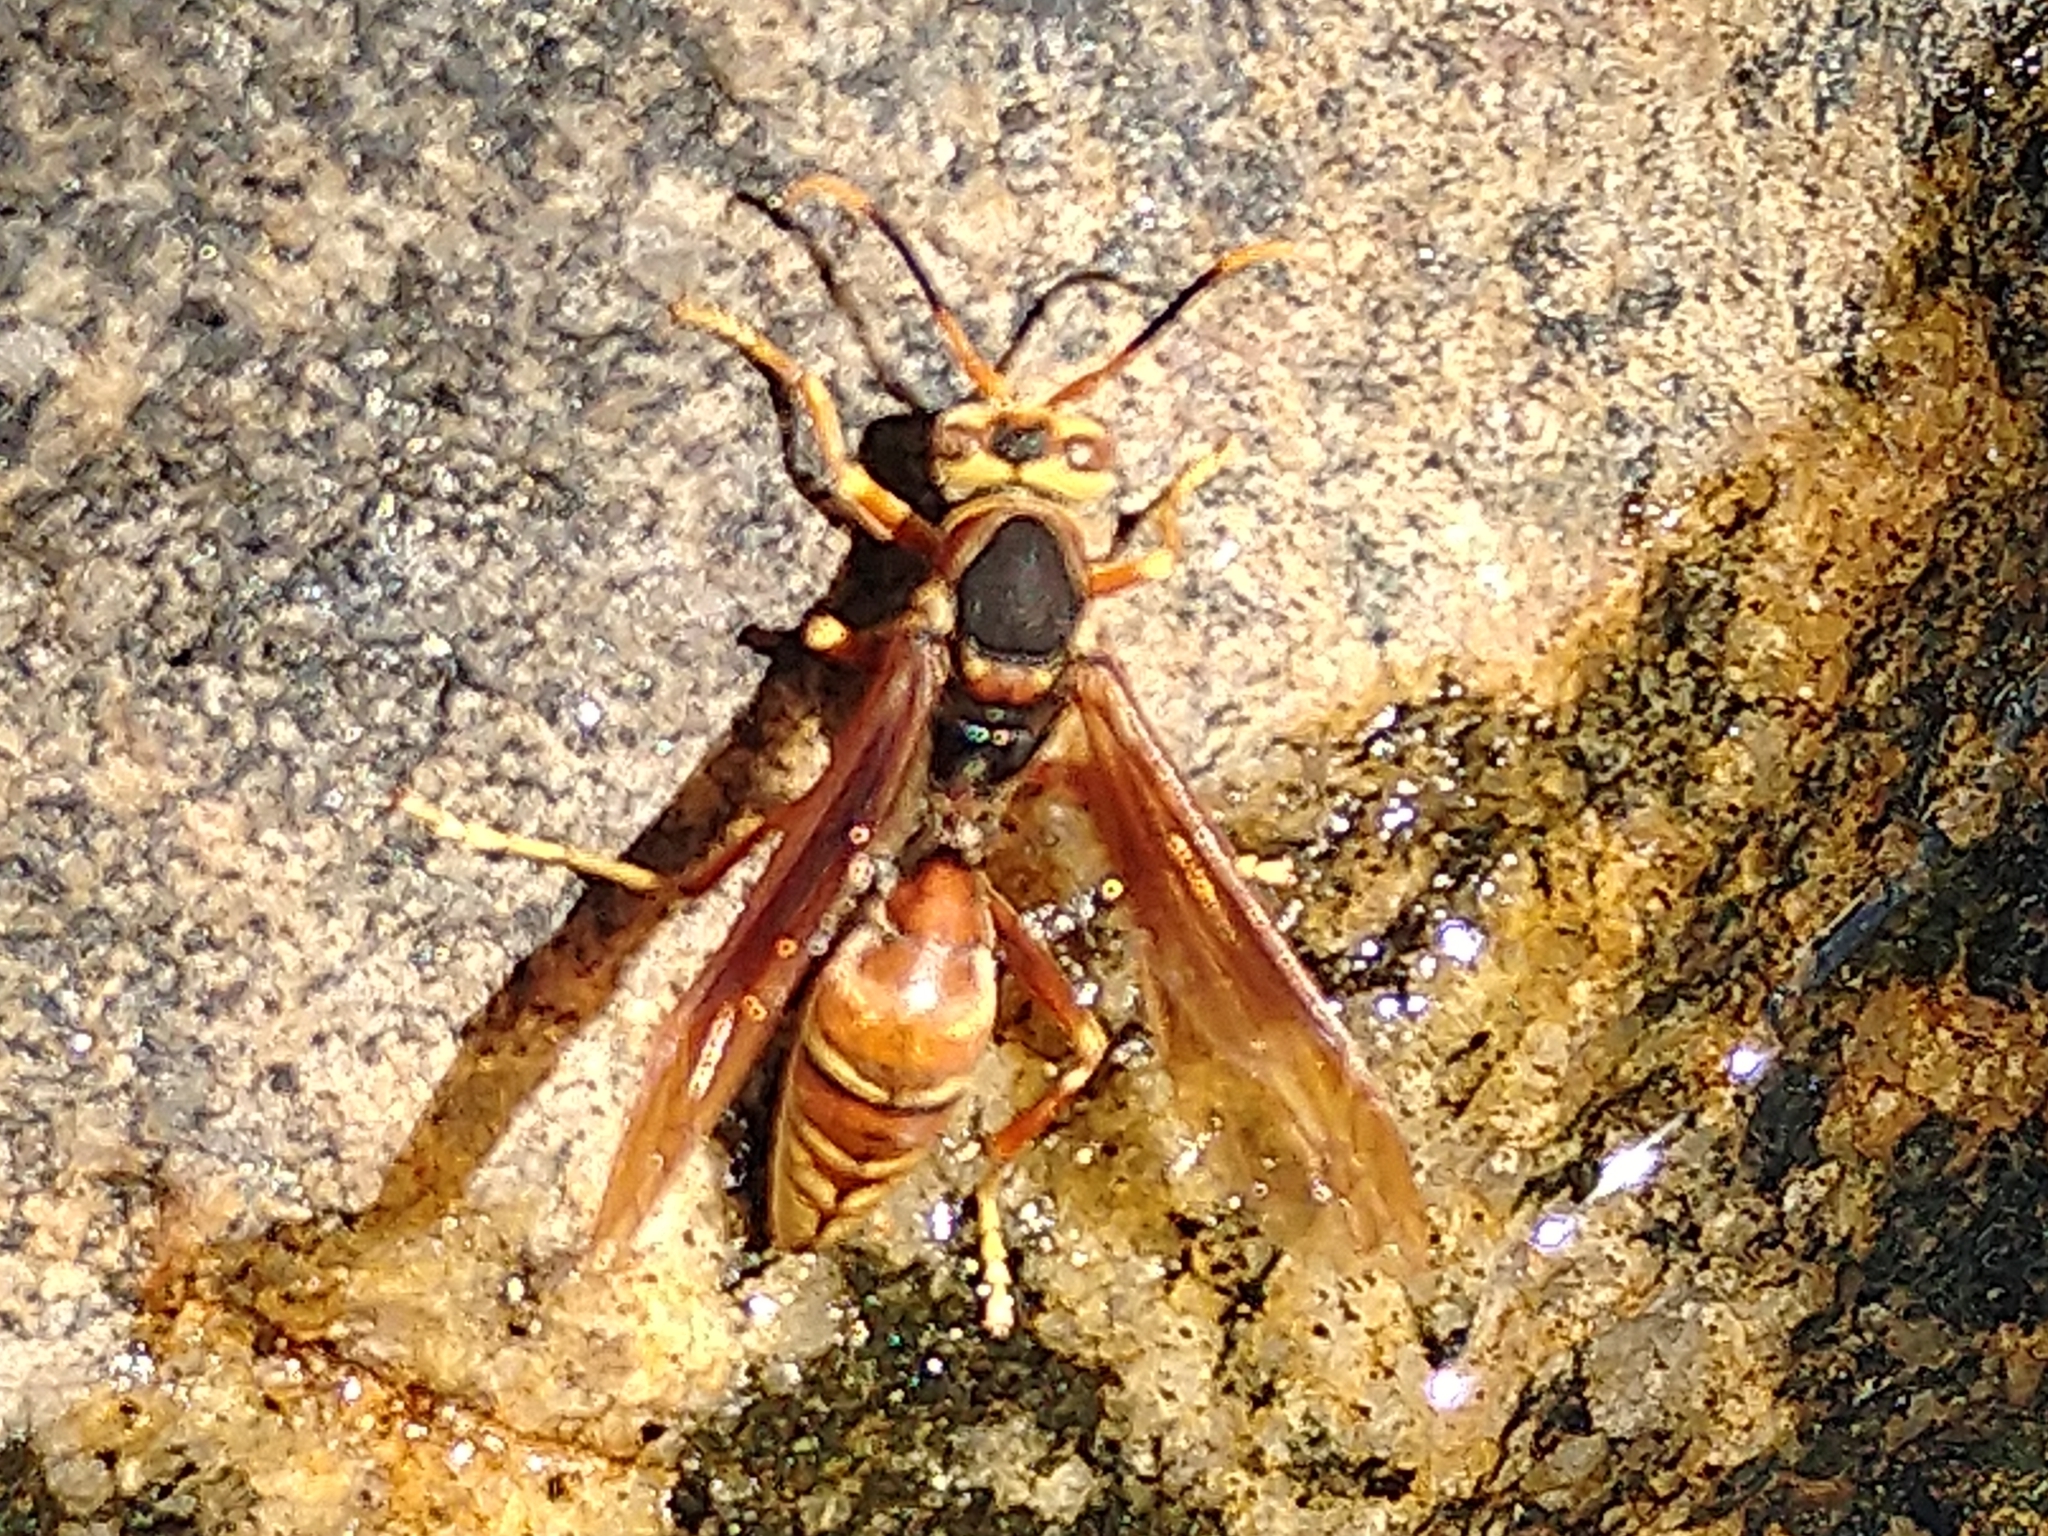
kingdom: Animalia
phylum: Arthropoda
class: Insecta
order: Hymenoptera
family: Eumenidae
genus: Polistes
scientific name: Polistes buyssoni
